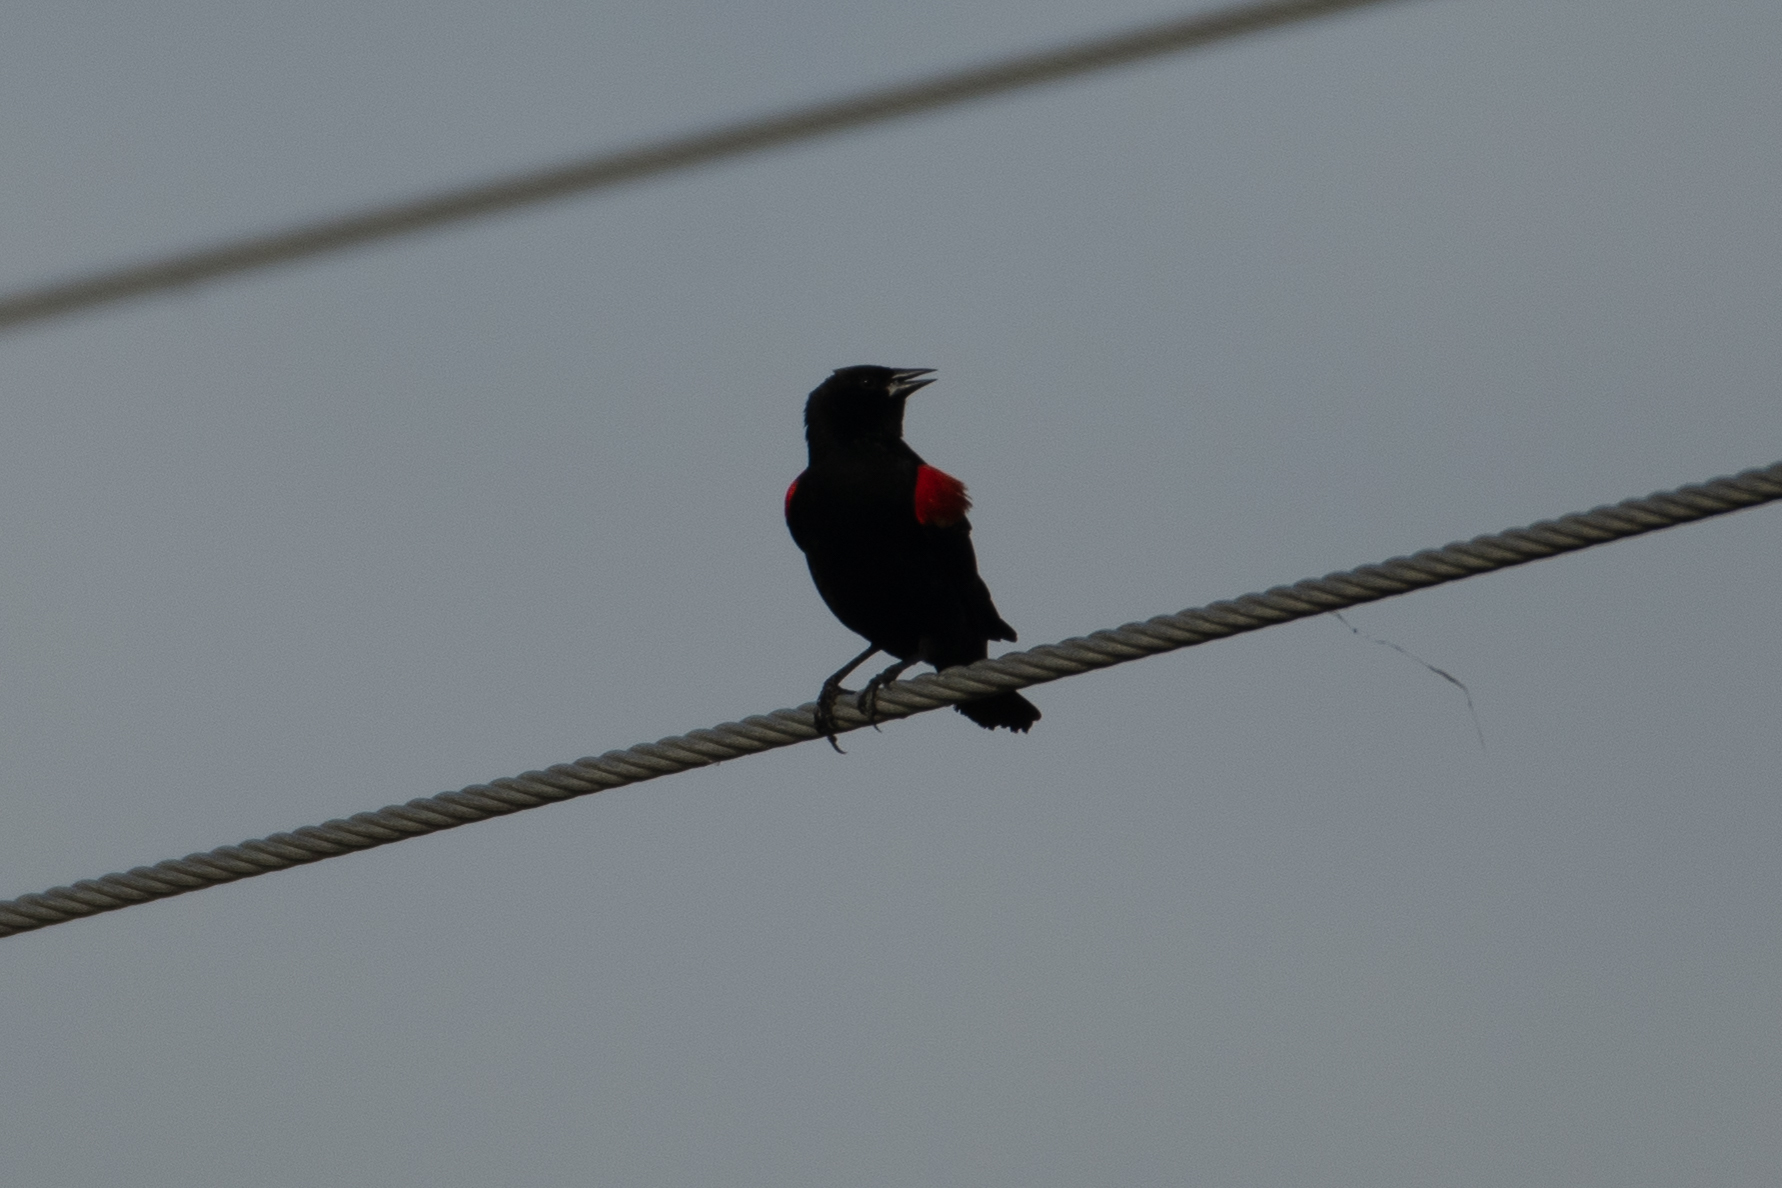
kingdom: Animalia
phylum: Chordata
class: Aves
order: Passeriformes
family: Icteridae
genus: Agelaius
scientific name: Agelaius phoeniceus
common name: Red-winged blackbird
